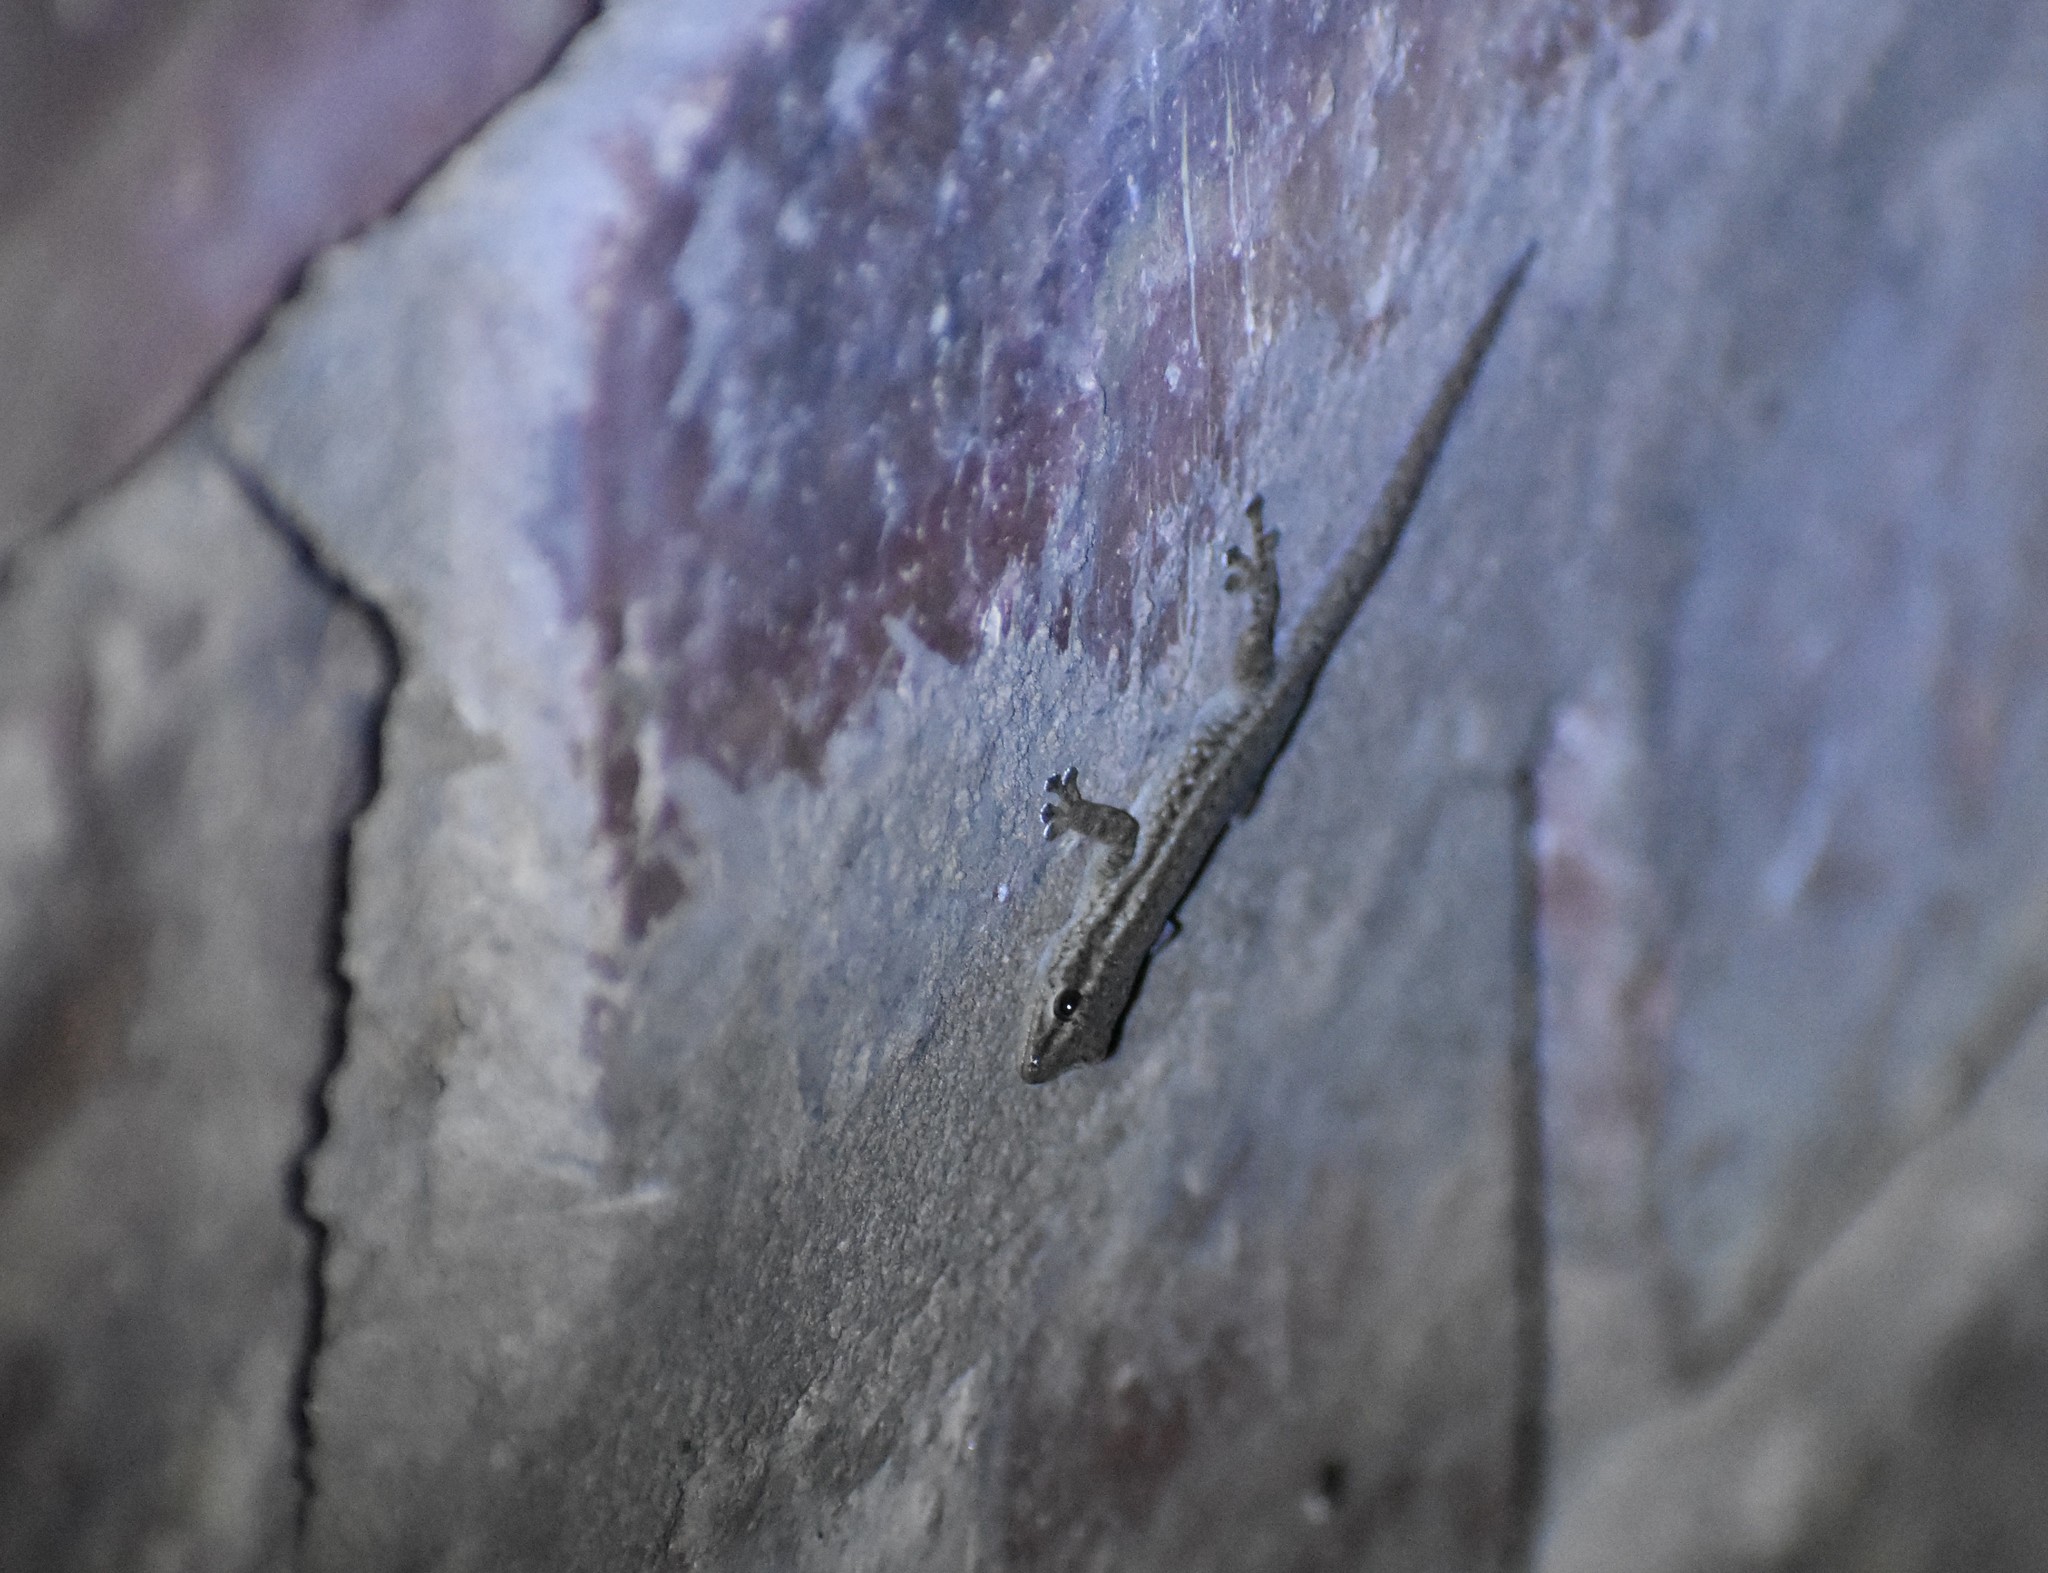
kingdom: Animalia
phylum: Chordata
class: Squamata
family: Gekkonidae
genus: Lygodactylus
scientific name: Lygodactylus capensis
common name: Cape dwarf gecko
